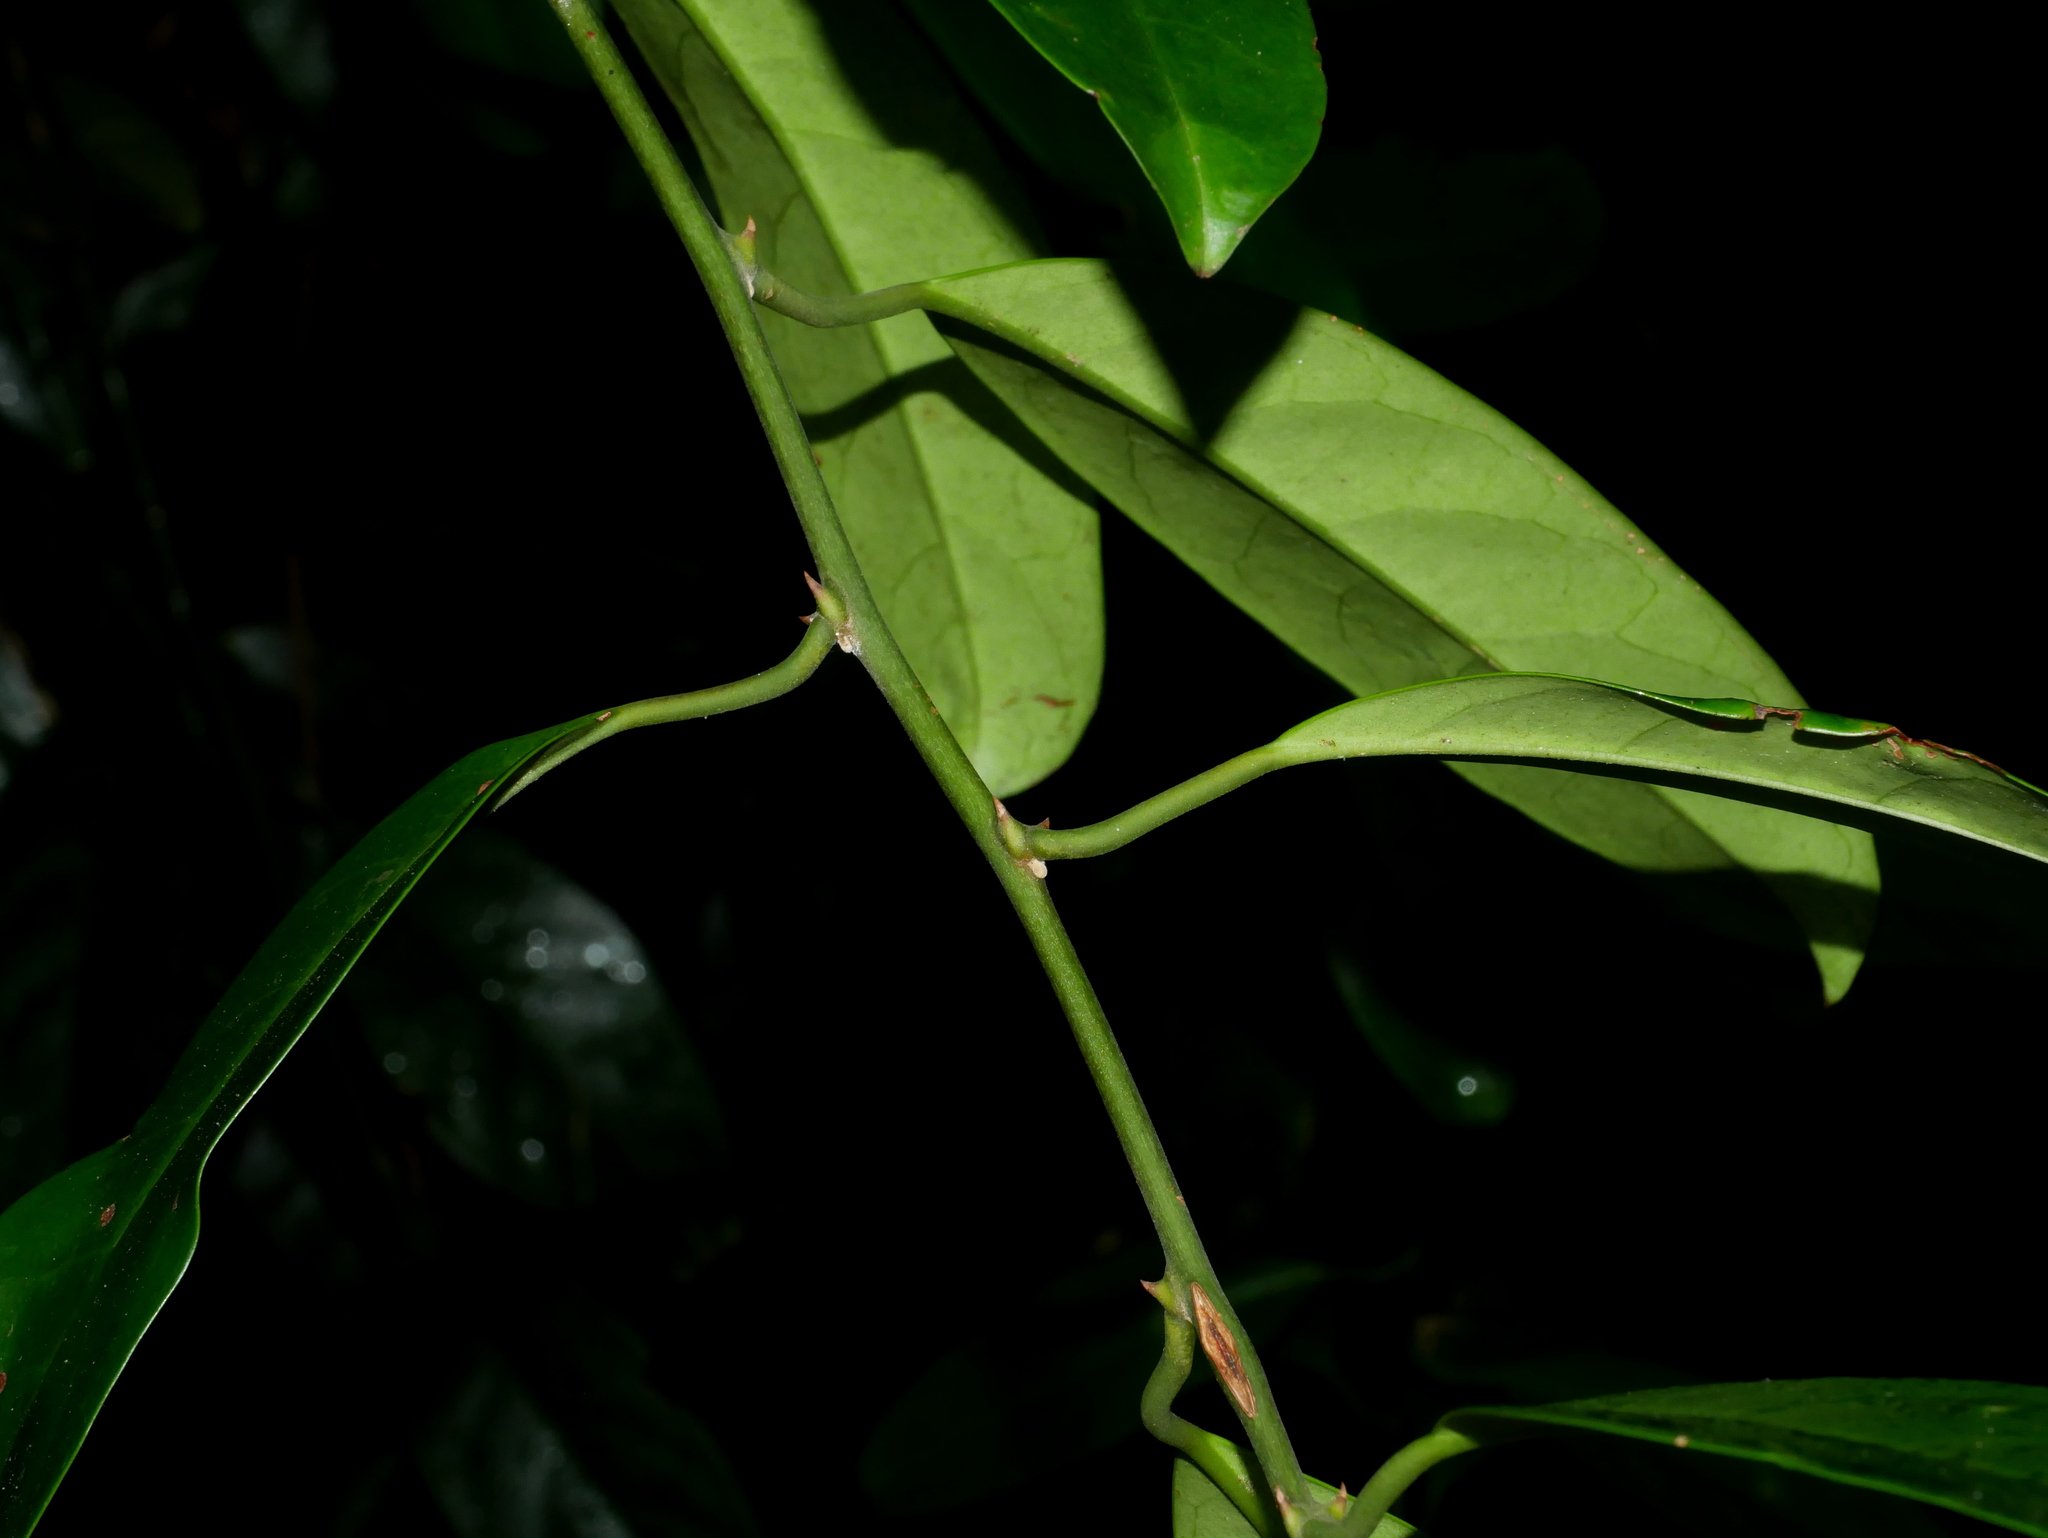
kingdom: Plantae
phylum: Tracheophyta
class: Magnoliopsida
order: Brassicales
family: Capparaceae
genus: Capparis
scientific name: Capparis henryi
